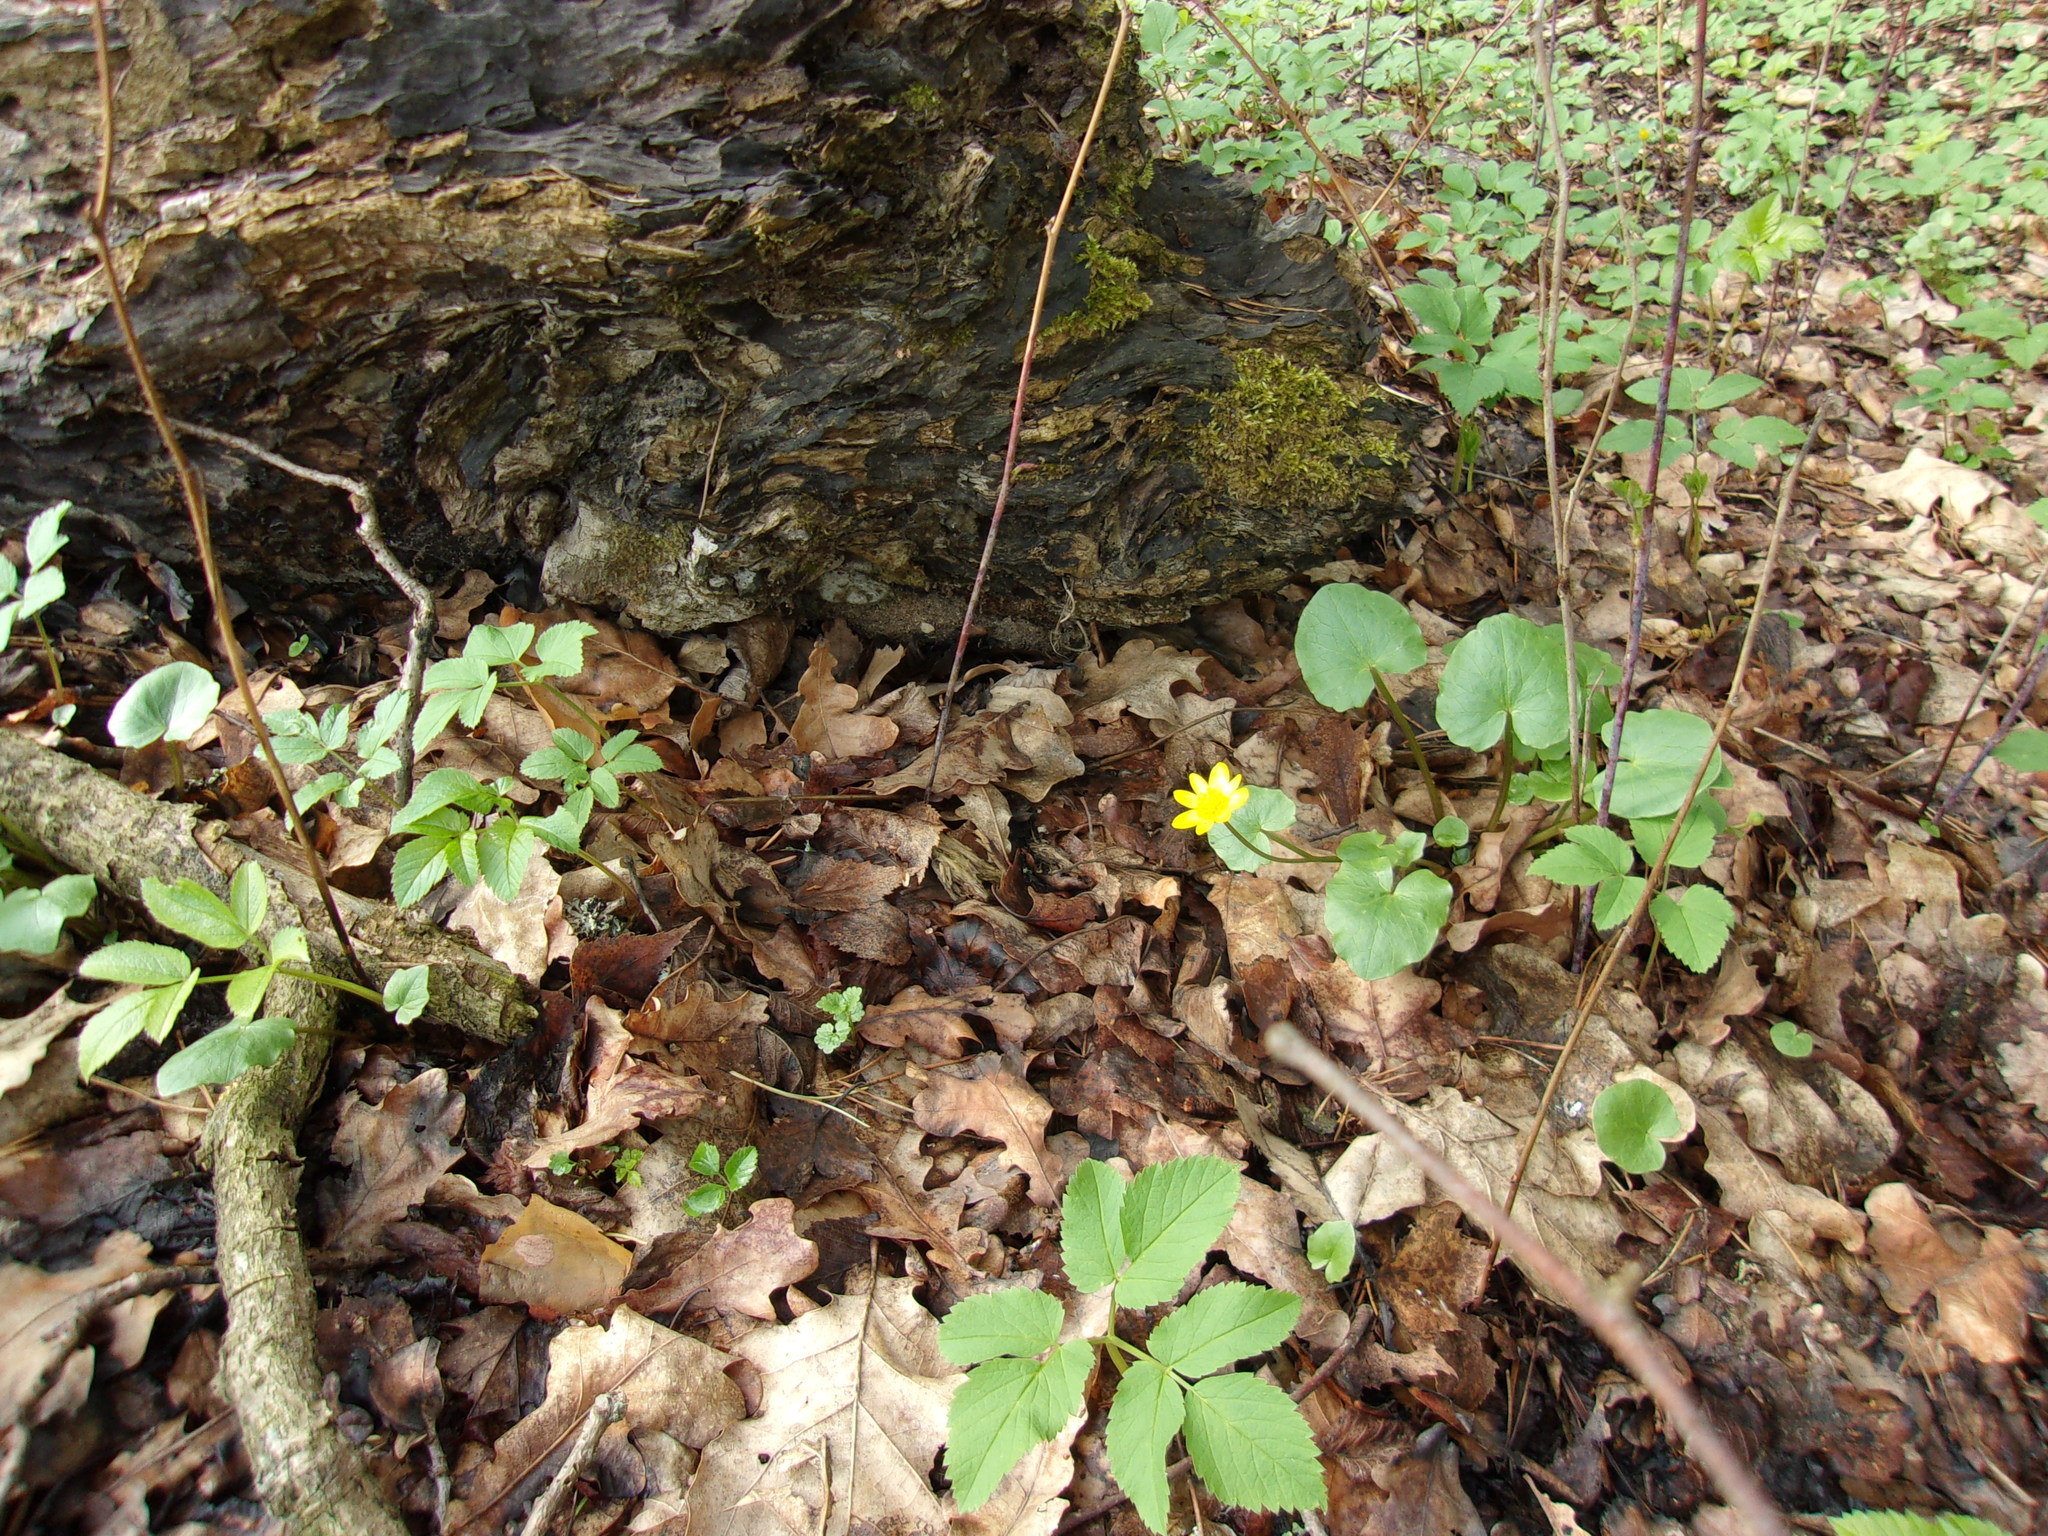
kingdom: Plantae
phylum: Tracheophyta
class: Magnoliopsida
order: Ranunculales
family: Ranunculaceae
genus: Ficaria
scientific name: Ficaria verna
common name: Lesser celandine
